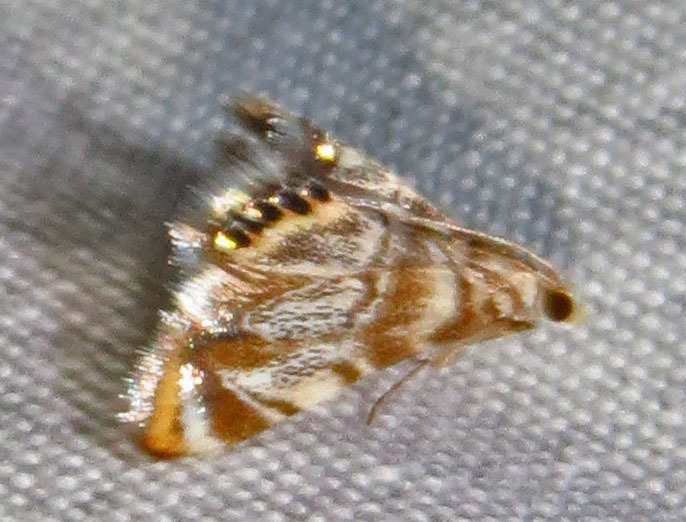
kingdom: Animalia
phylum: Arthropoda
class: Insecta
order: Lepidoptera
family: Crambidae
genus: Eoparargyractis
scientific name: Eoparargyractis irroratalis
